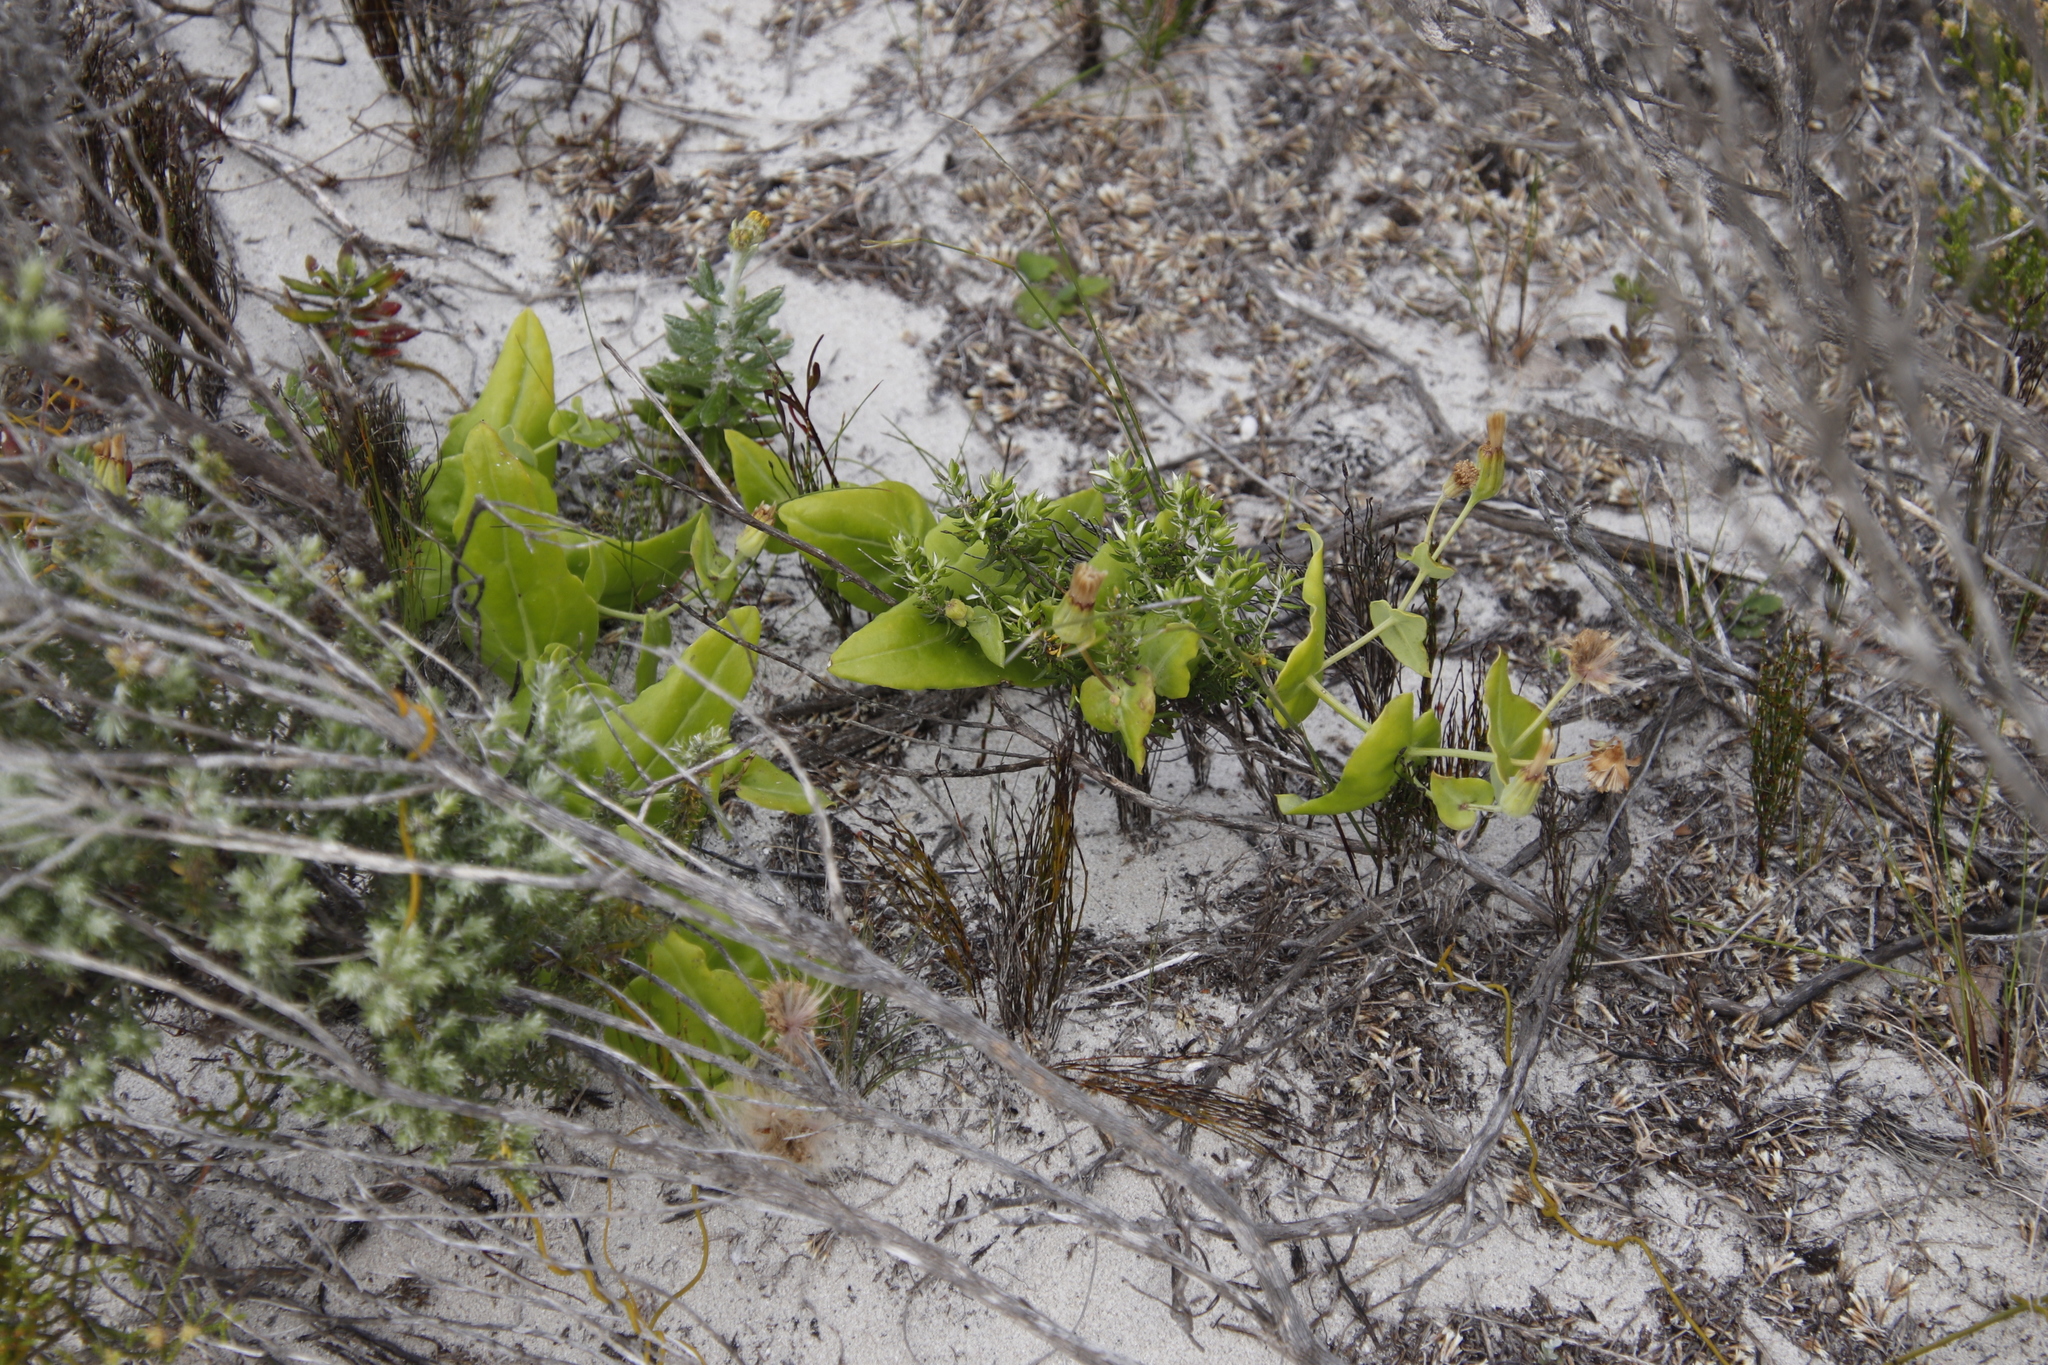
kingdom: Plantae
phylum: Tracheophyta
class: Magnoliopsida
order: Asterales
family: Asteraceae
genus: Othonna
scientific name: Othonna undulosa
